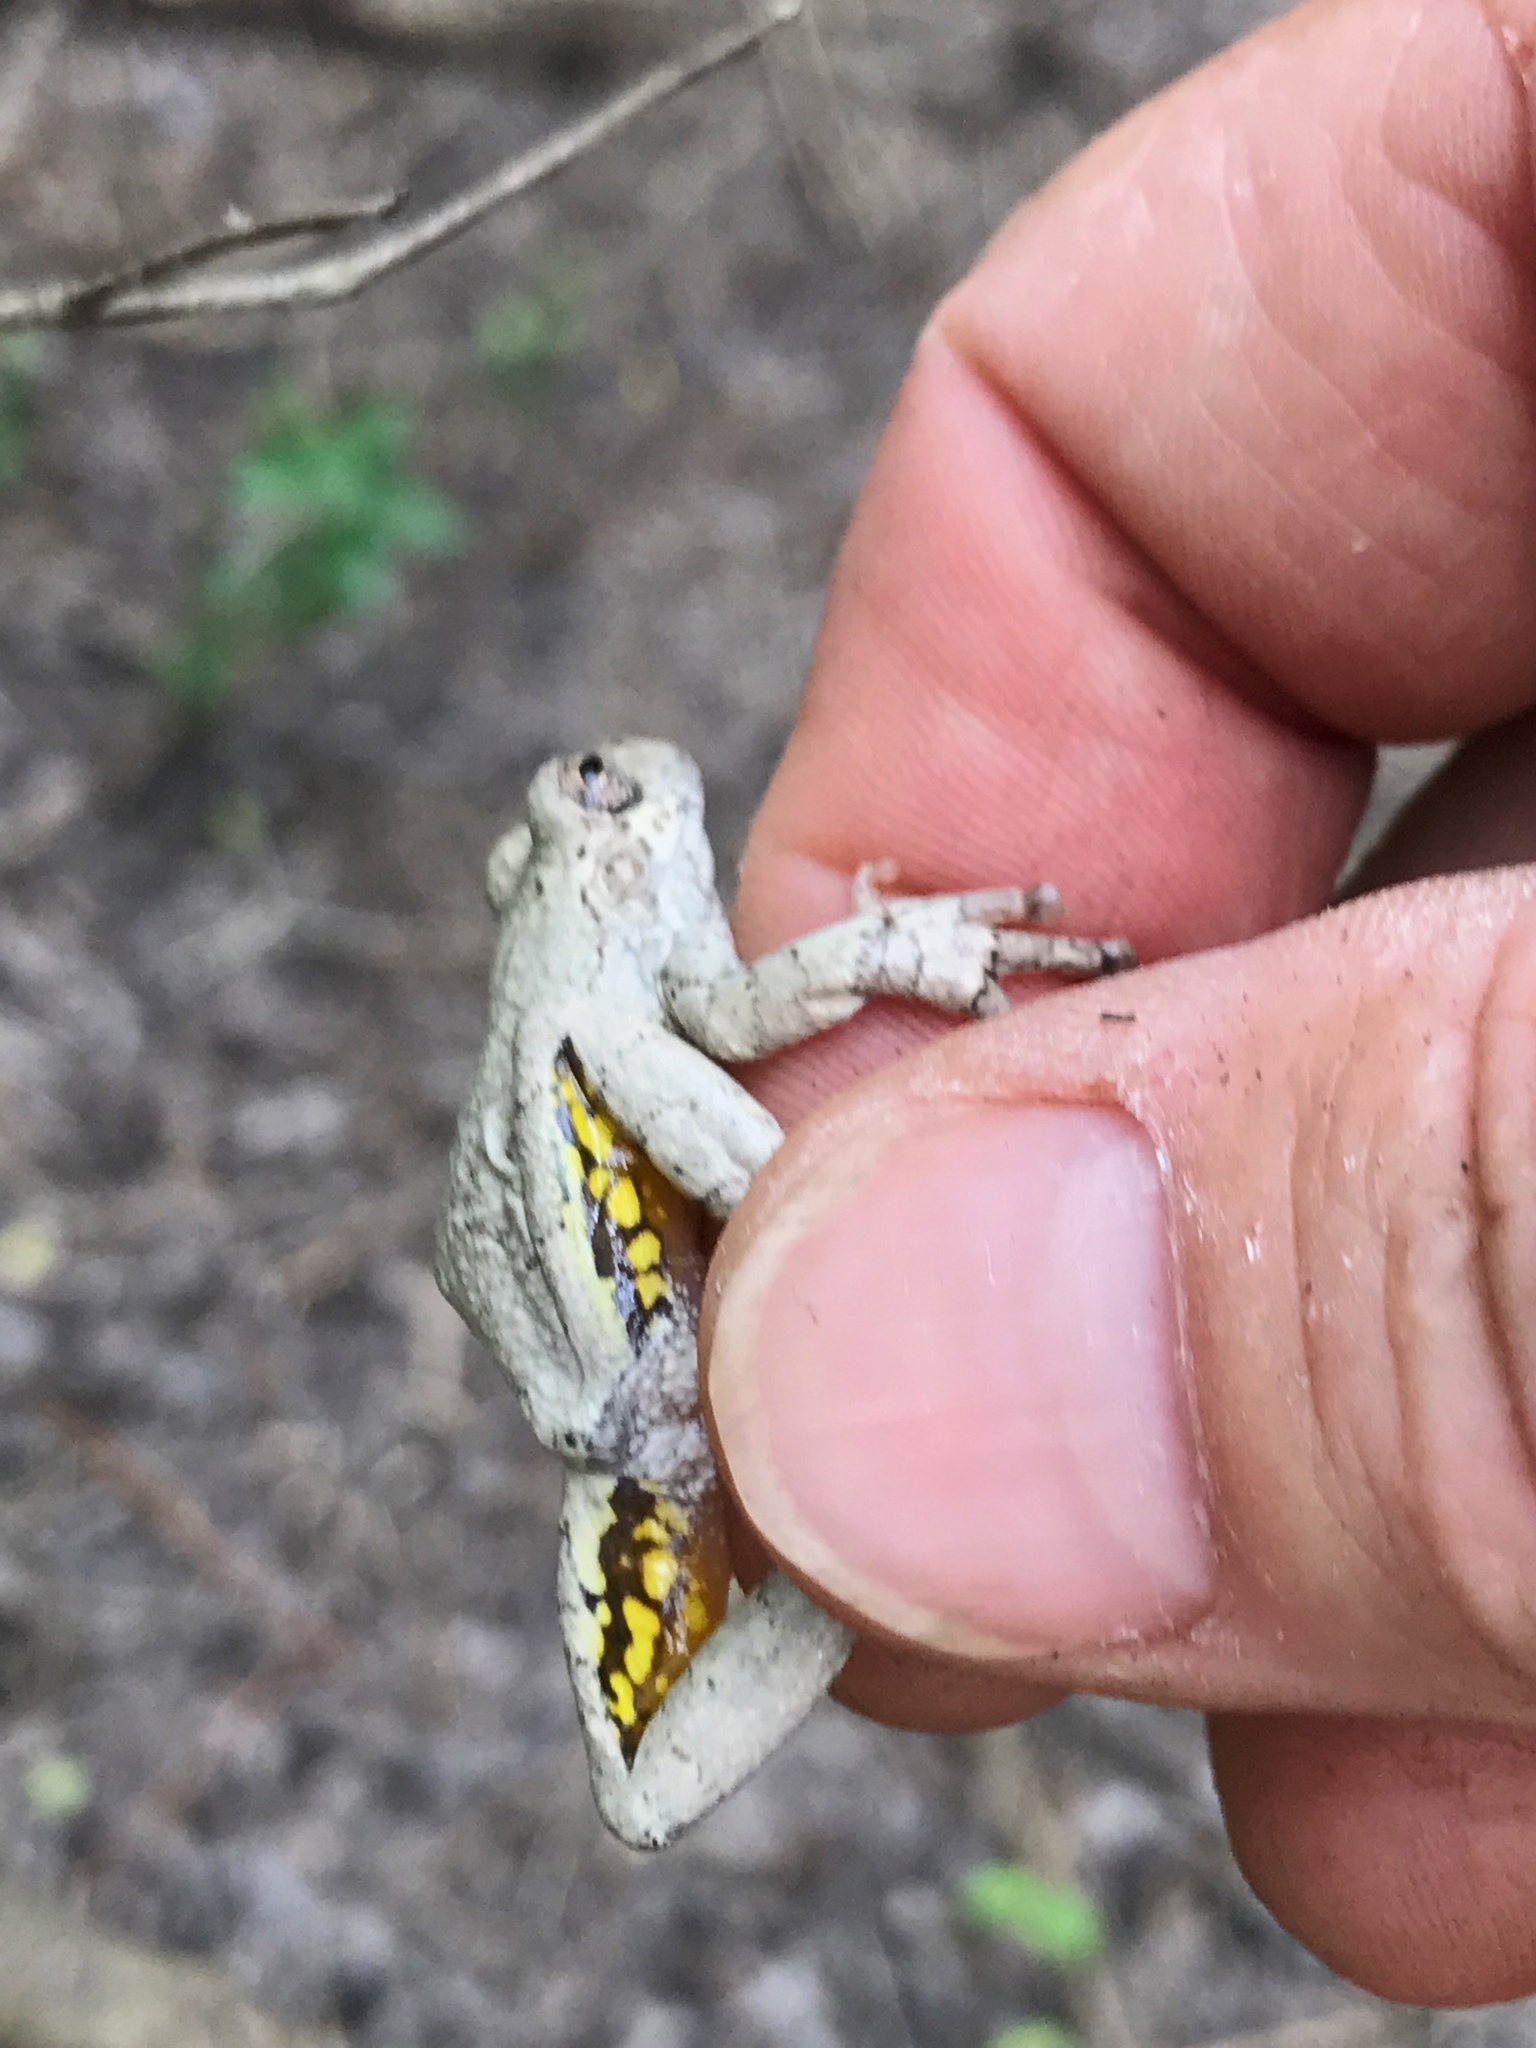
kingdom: Animalia
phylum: Chordata
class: Amphibia
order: Anura
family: Hylidae
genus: Dryophytes
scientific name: Dryophytes versicolor
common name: Gray treefrog
